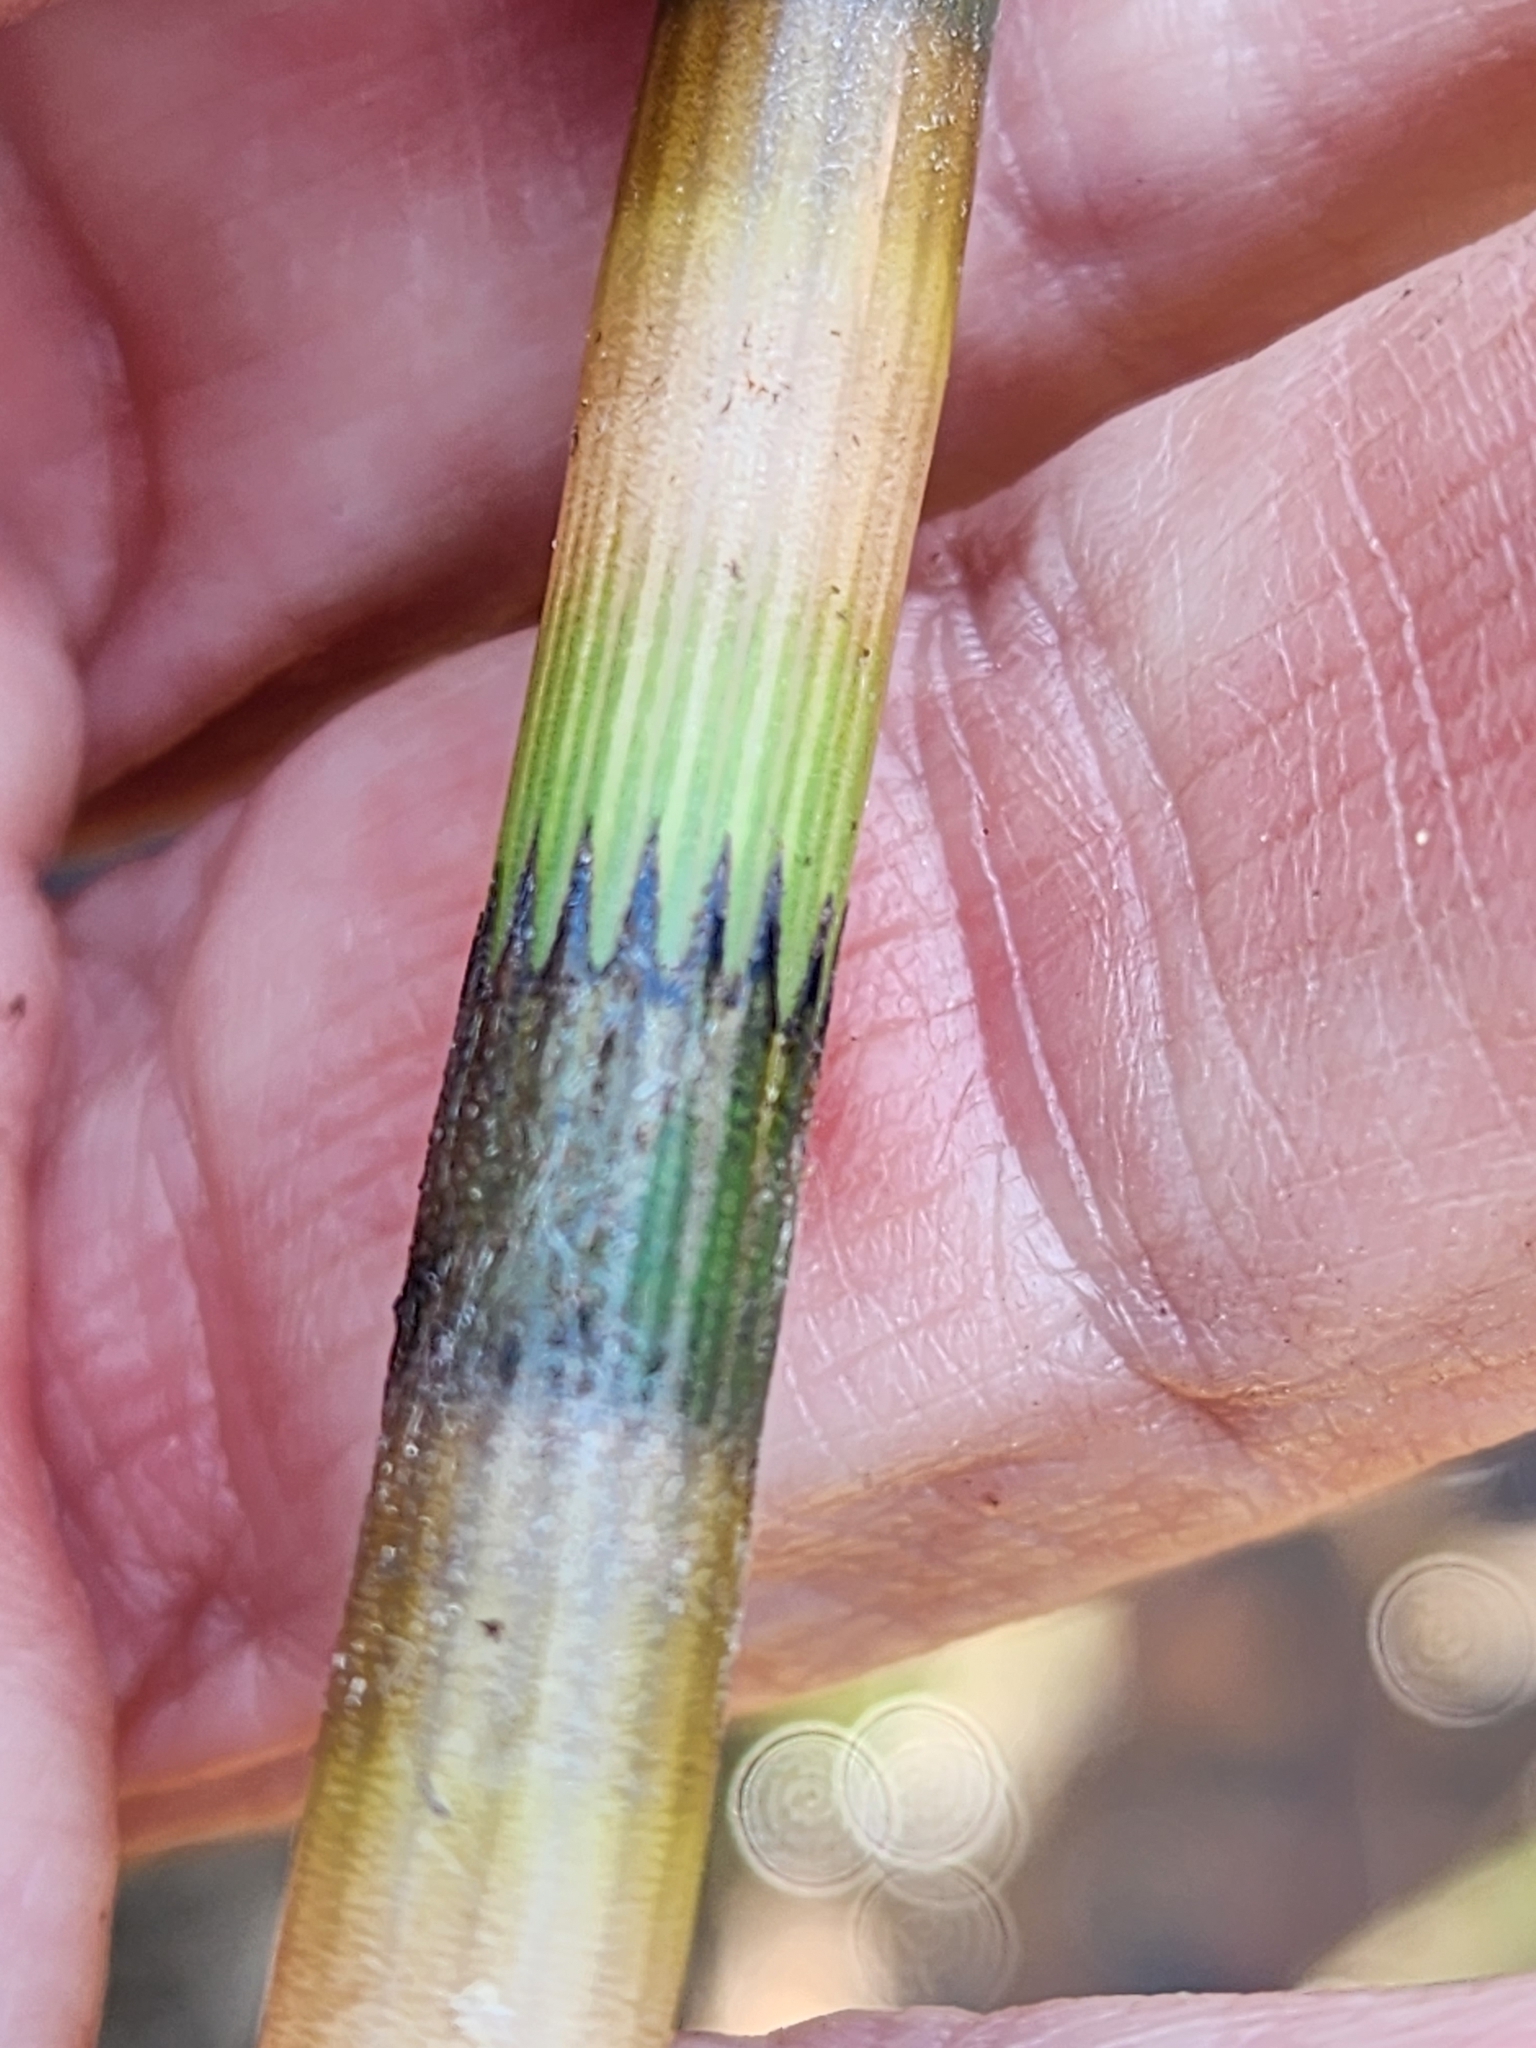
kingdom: Plantae
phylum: Tracheophyta
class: Polypodiopsida
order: Equisetales
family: Equisetaceae
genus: Equisetum
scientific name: Equisetum fluviatile
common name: Water horsetail
